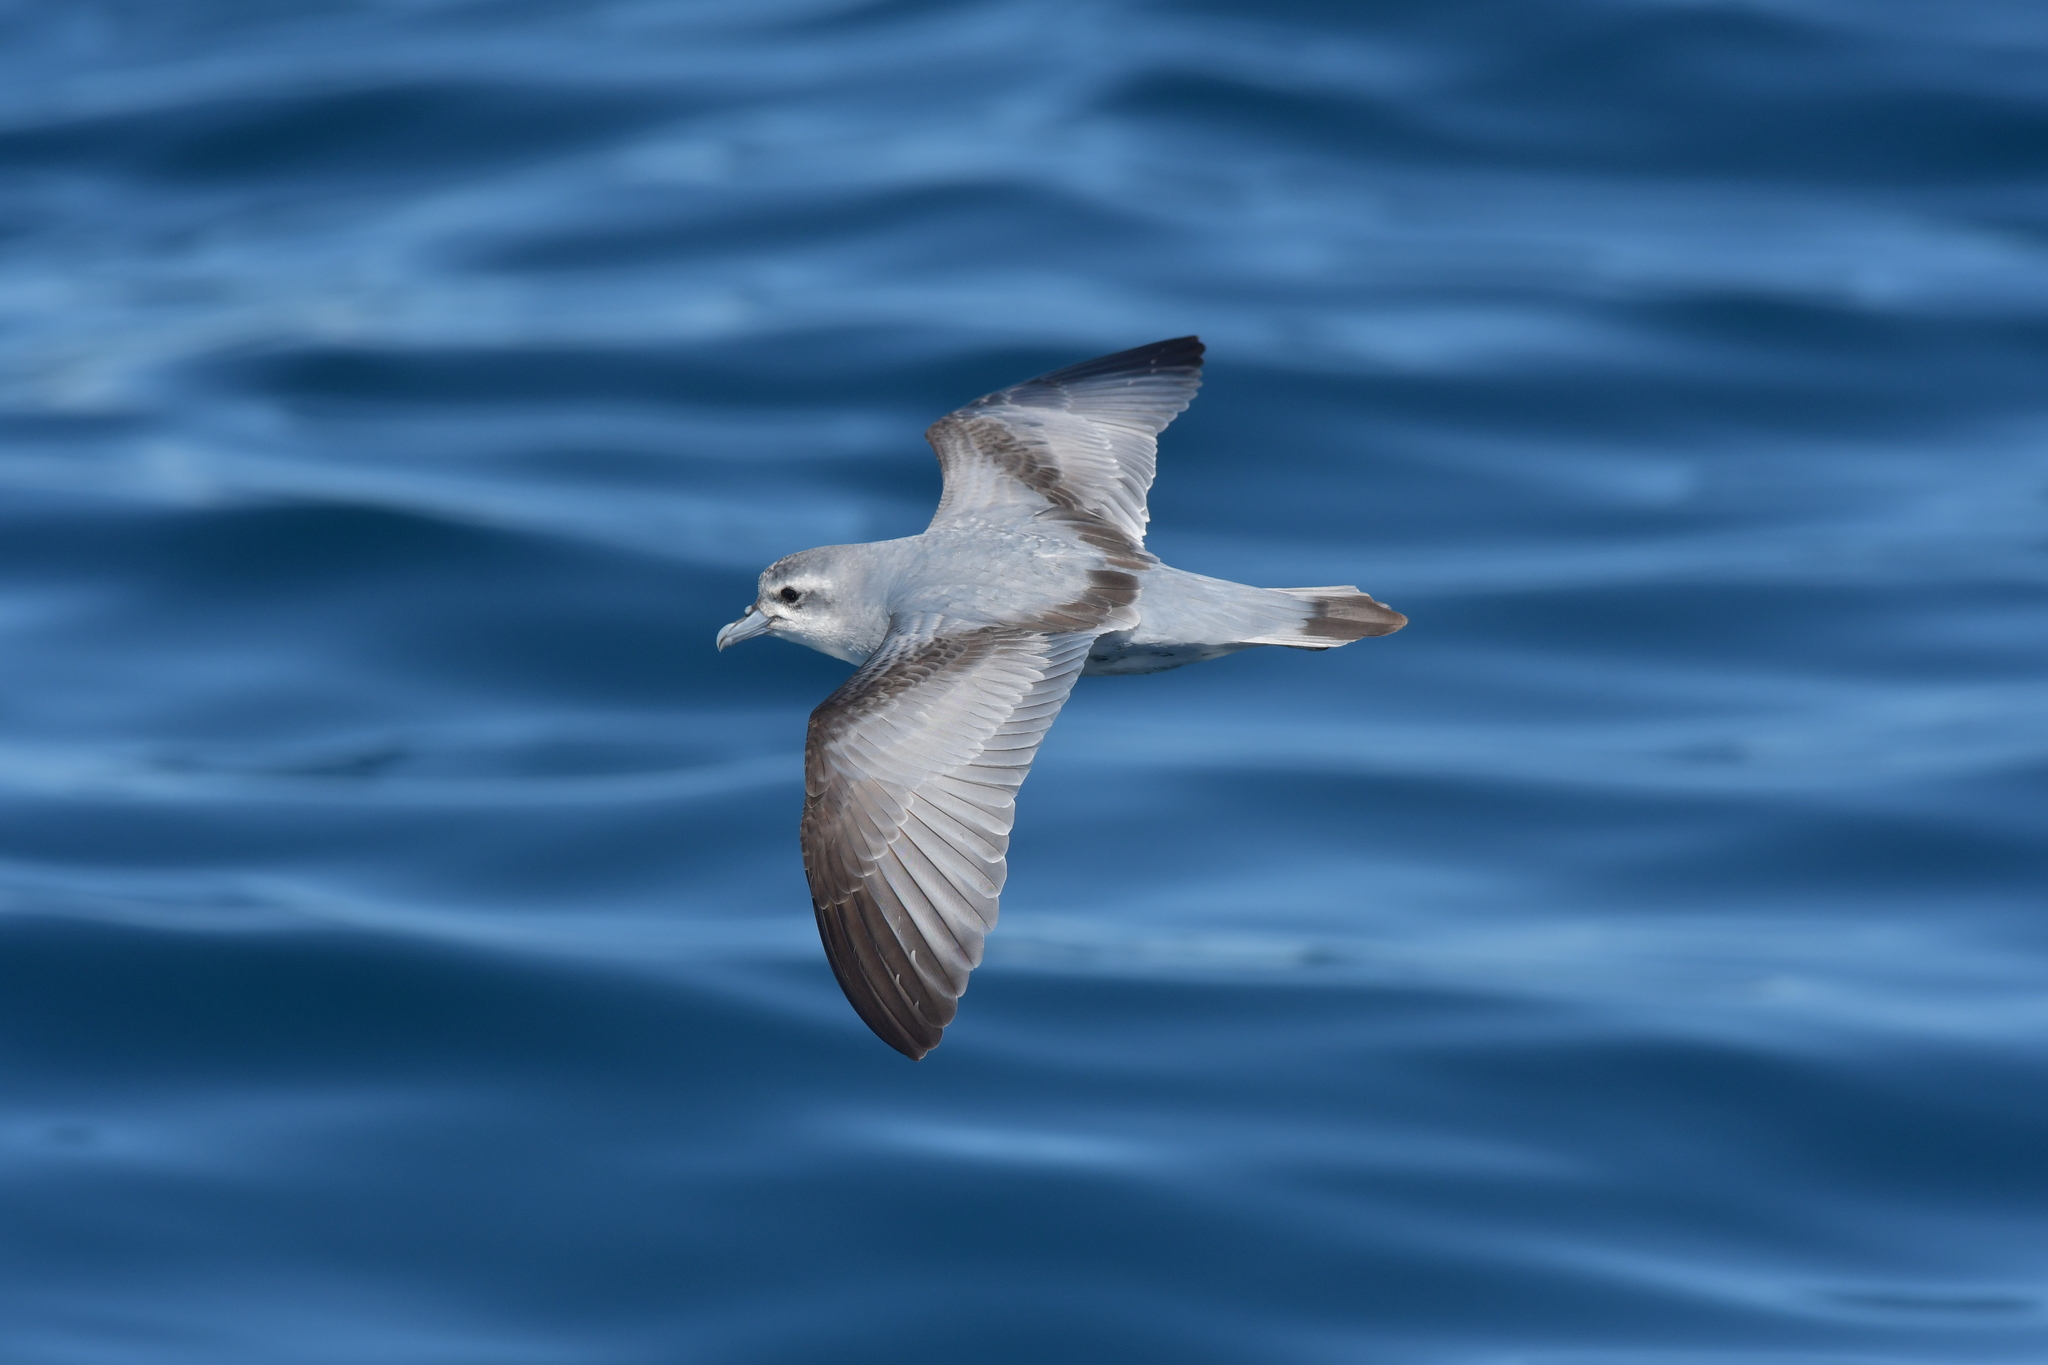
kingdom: Animalia
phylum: Chordata
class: Aves
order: Procellariiformes
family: Procellariidae
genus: Pachyptila
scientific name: Pachyptila turtur
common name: Fairy prion
